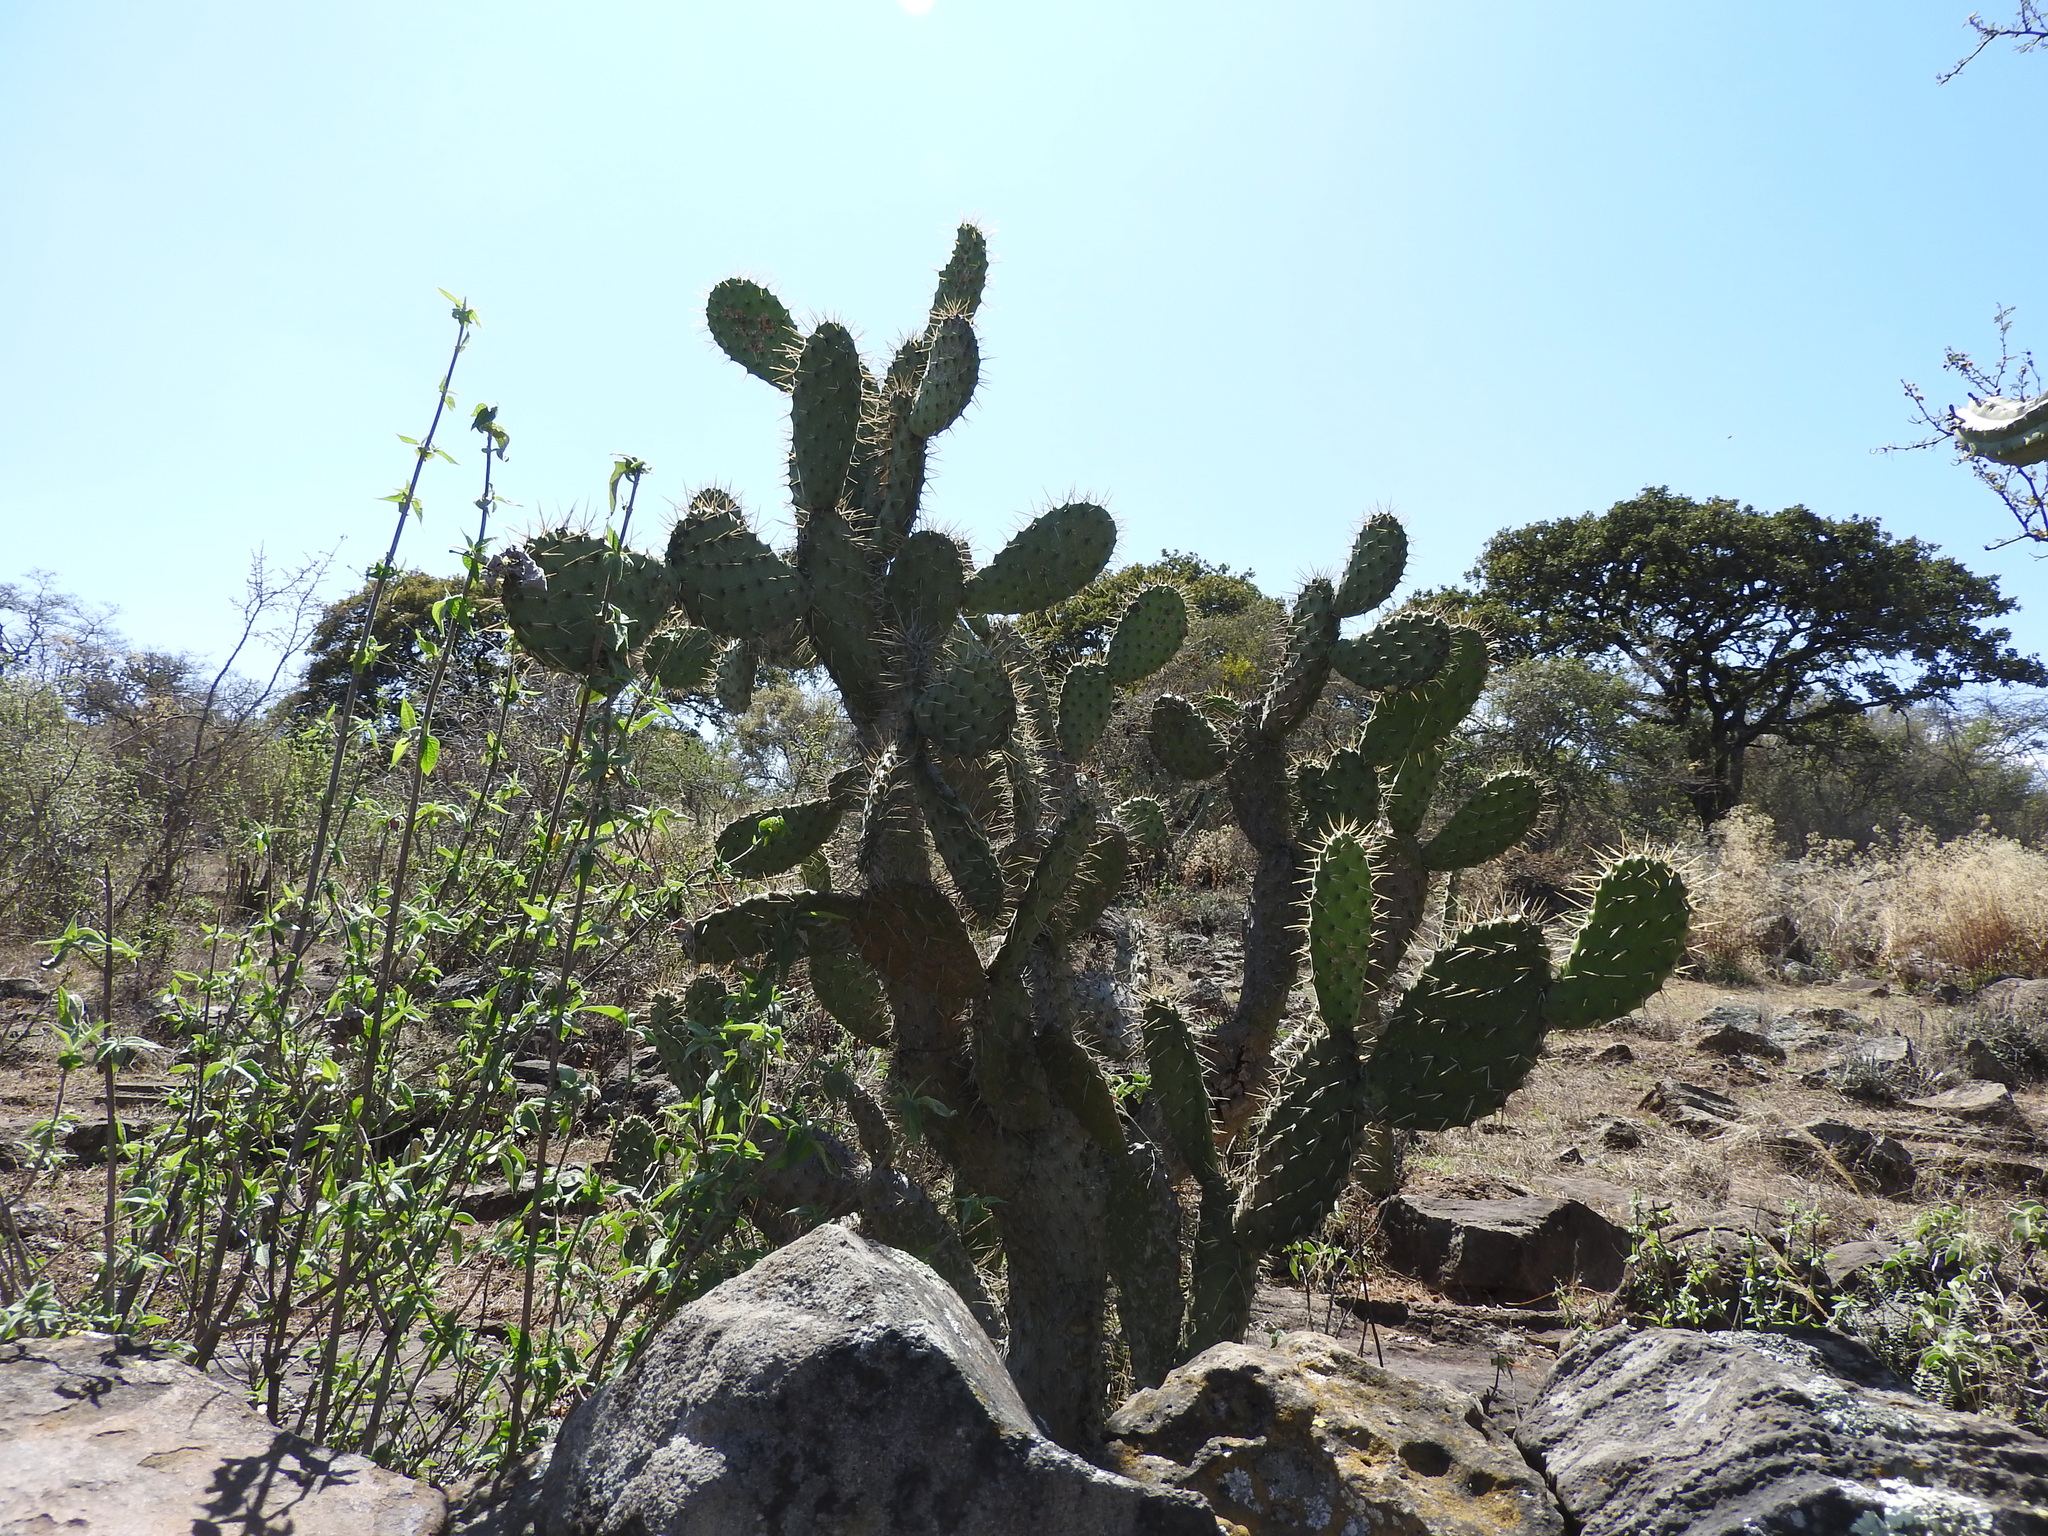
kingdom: Plantae
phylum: Tracheophyta
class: Magnoliopsida
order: Caryophyllales
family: Cactaceae
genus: Opuntia
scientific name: Opuntia ficus-indica
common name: Barbary fig
